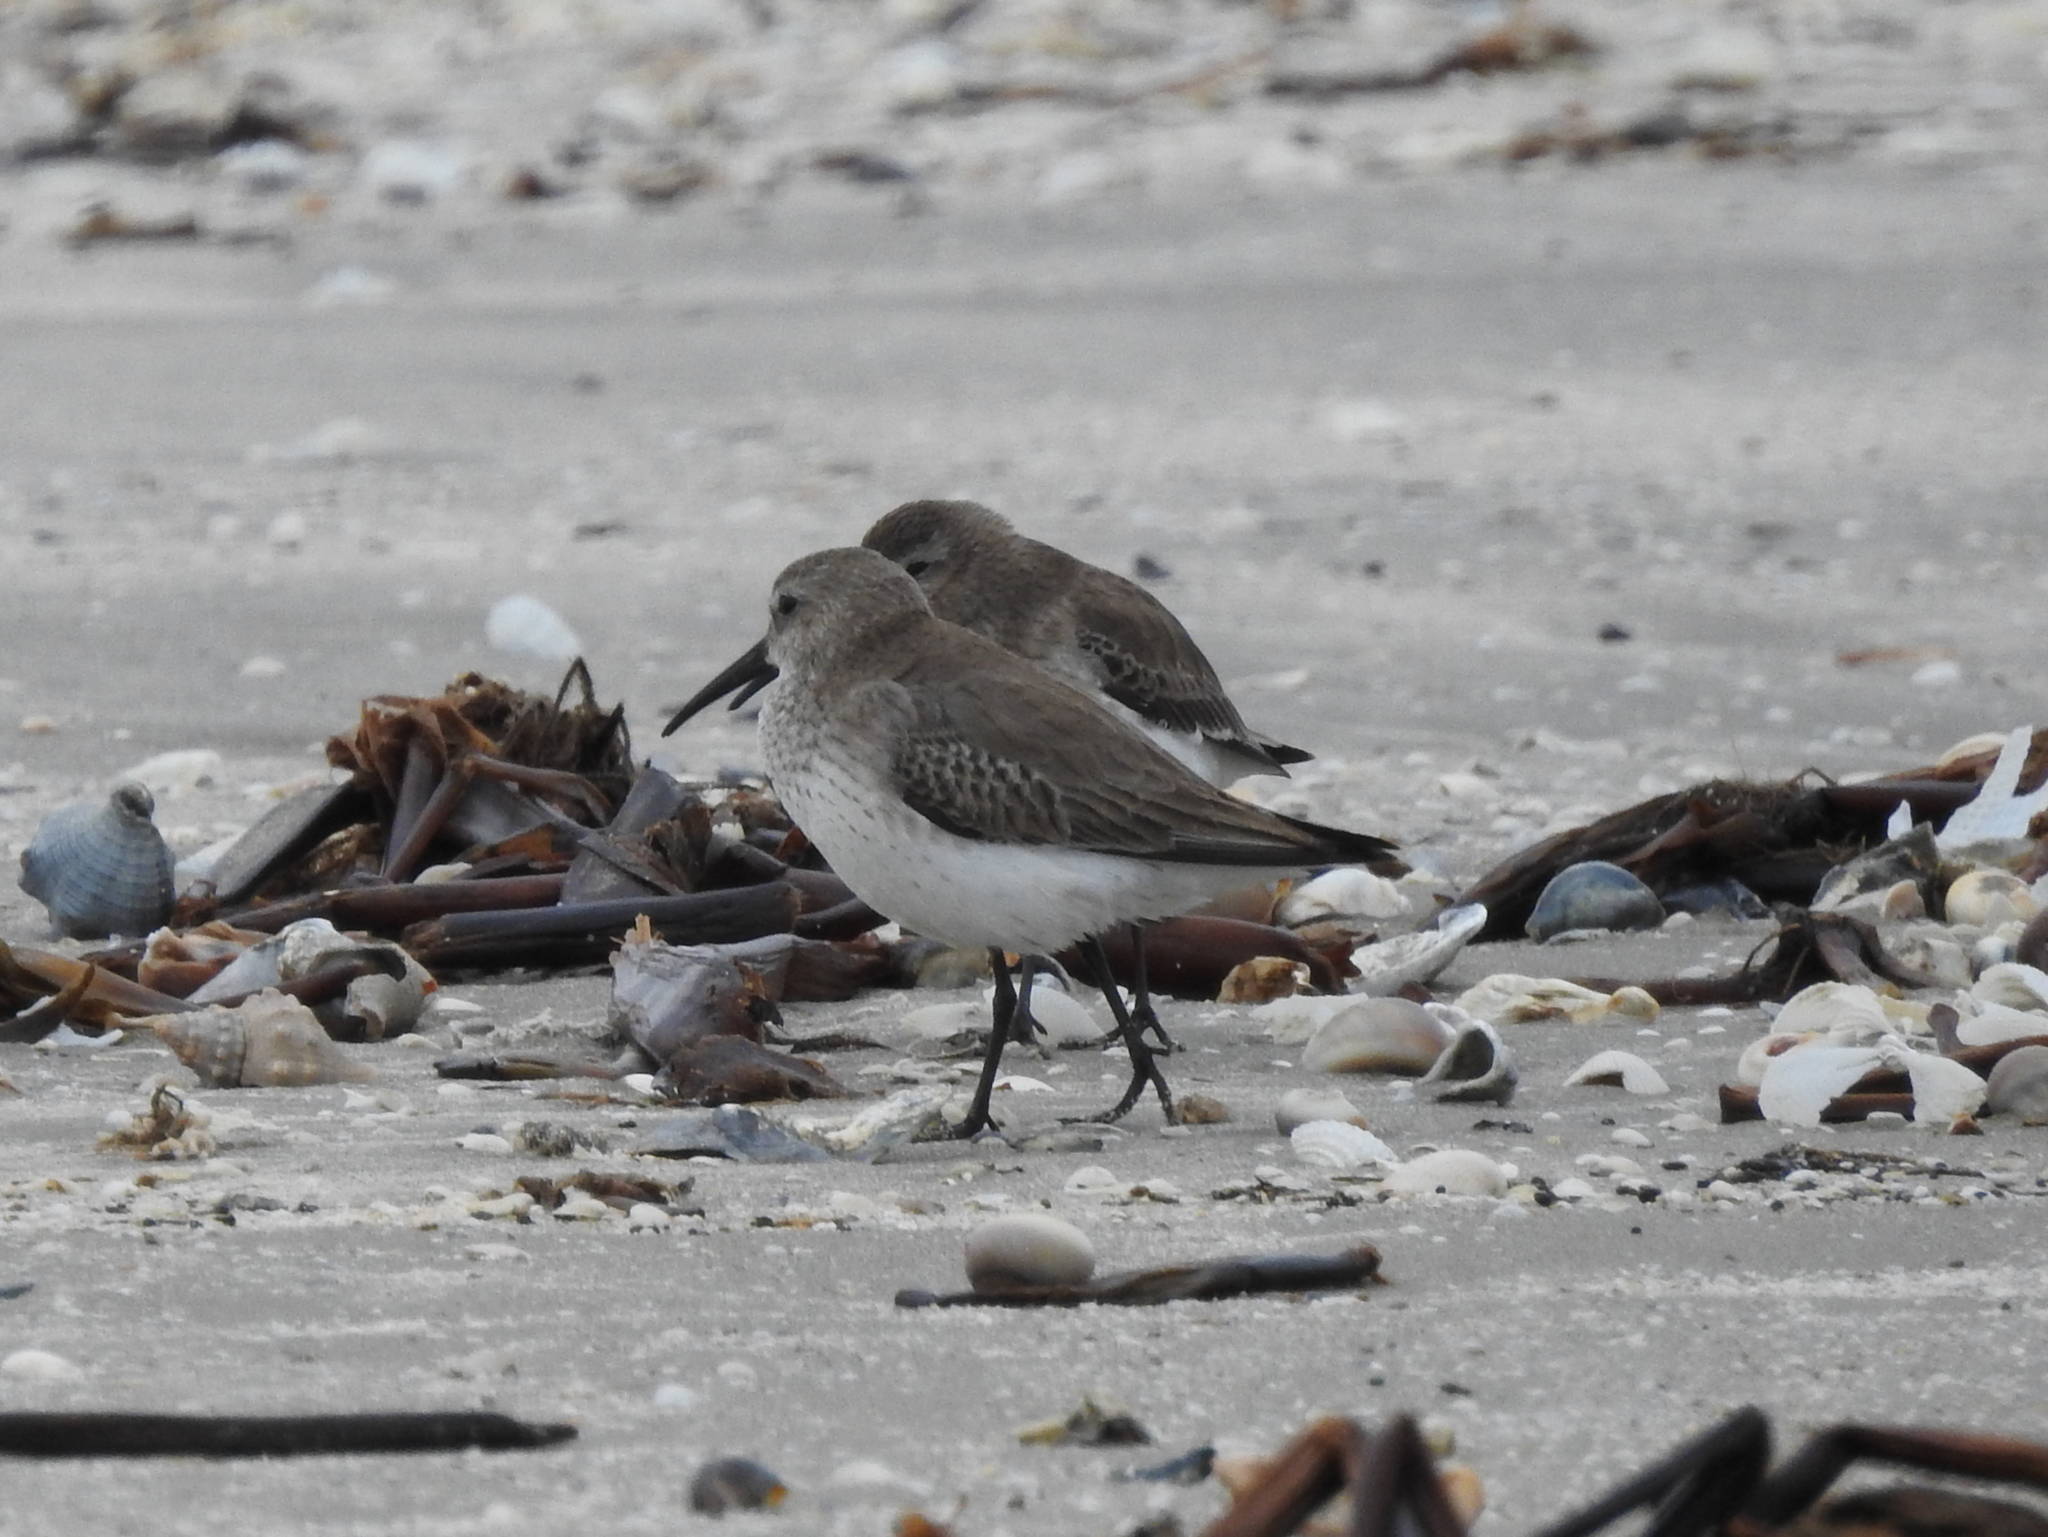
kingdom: Animalia
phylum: Chordata
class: Aves
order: Charadriiformes
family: Scolopacidae
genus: Calidris
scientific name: Calidris alpina
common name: Dunlin
